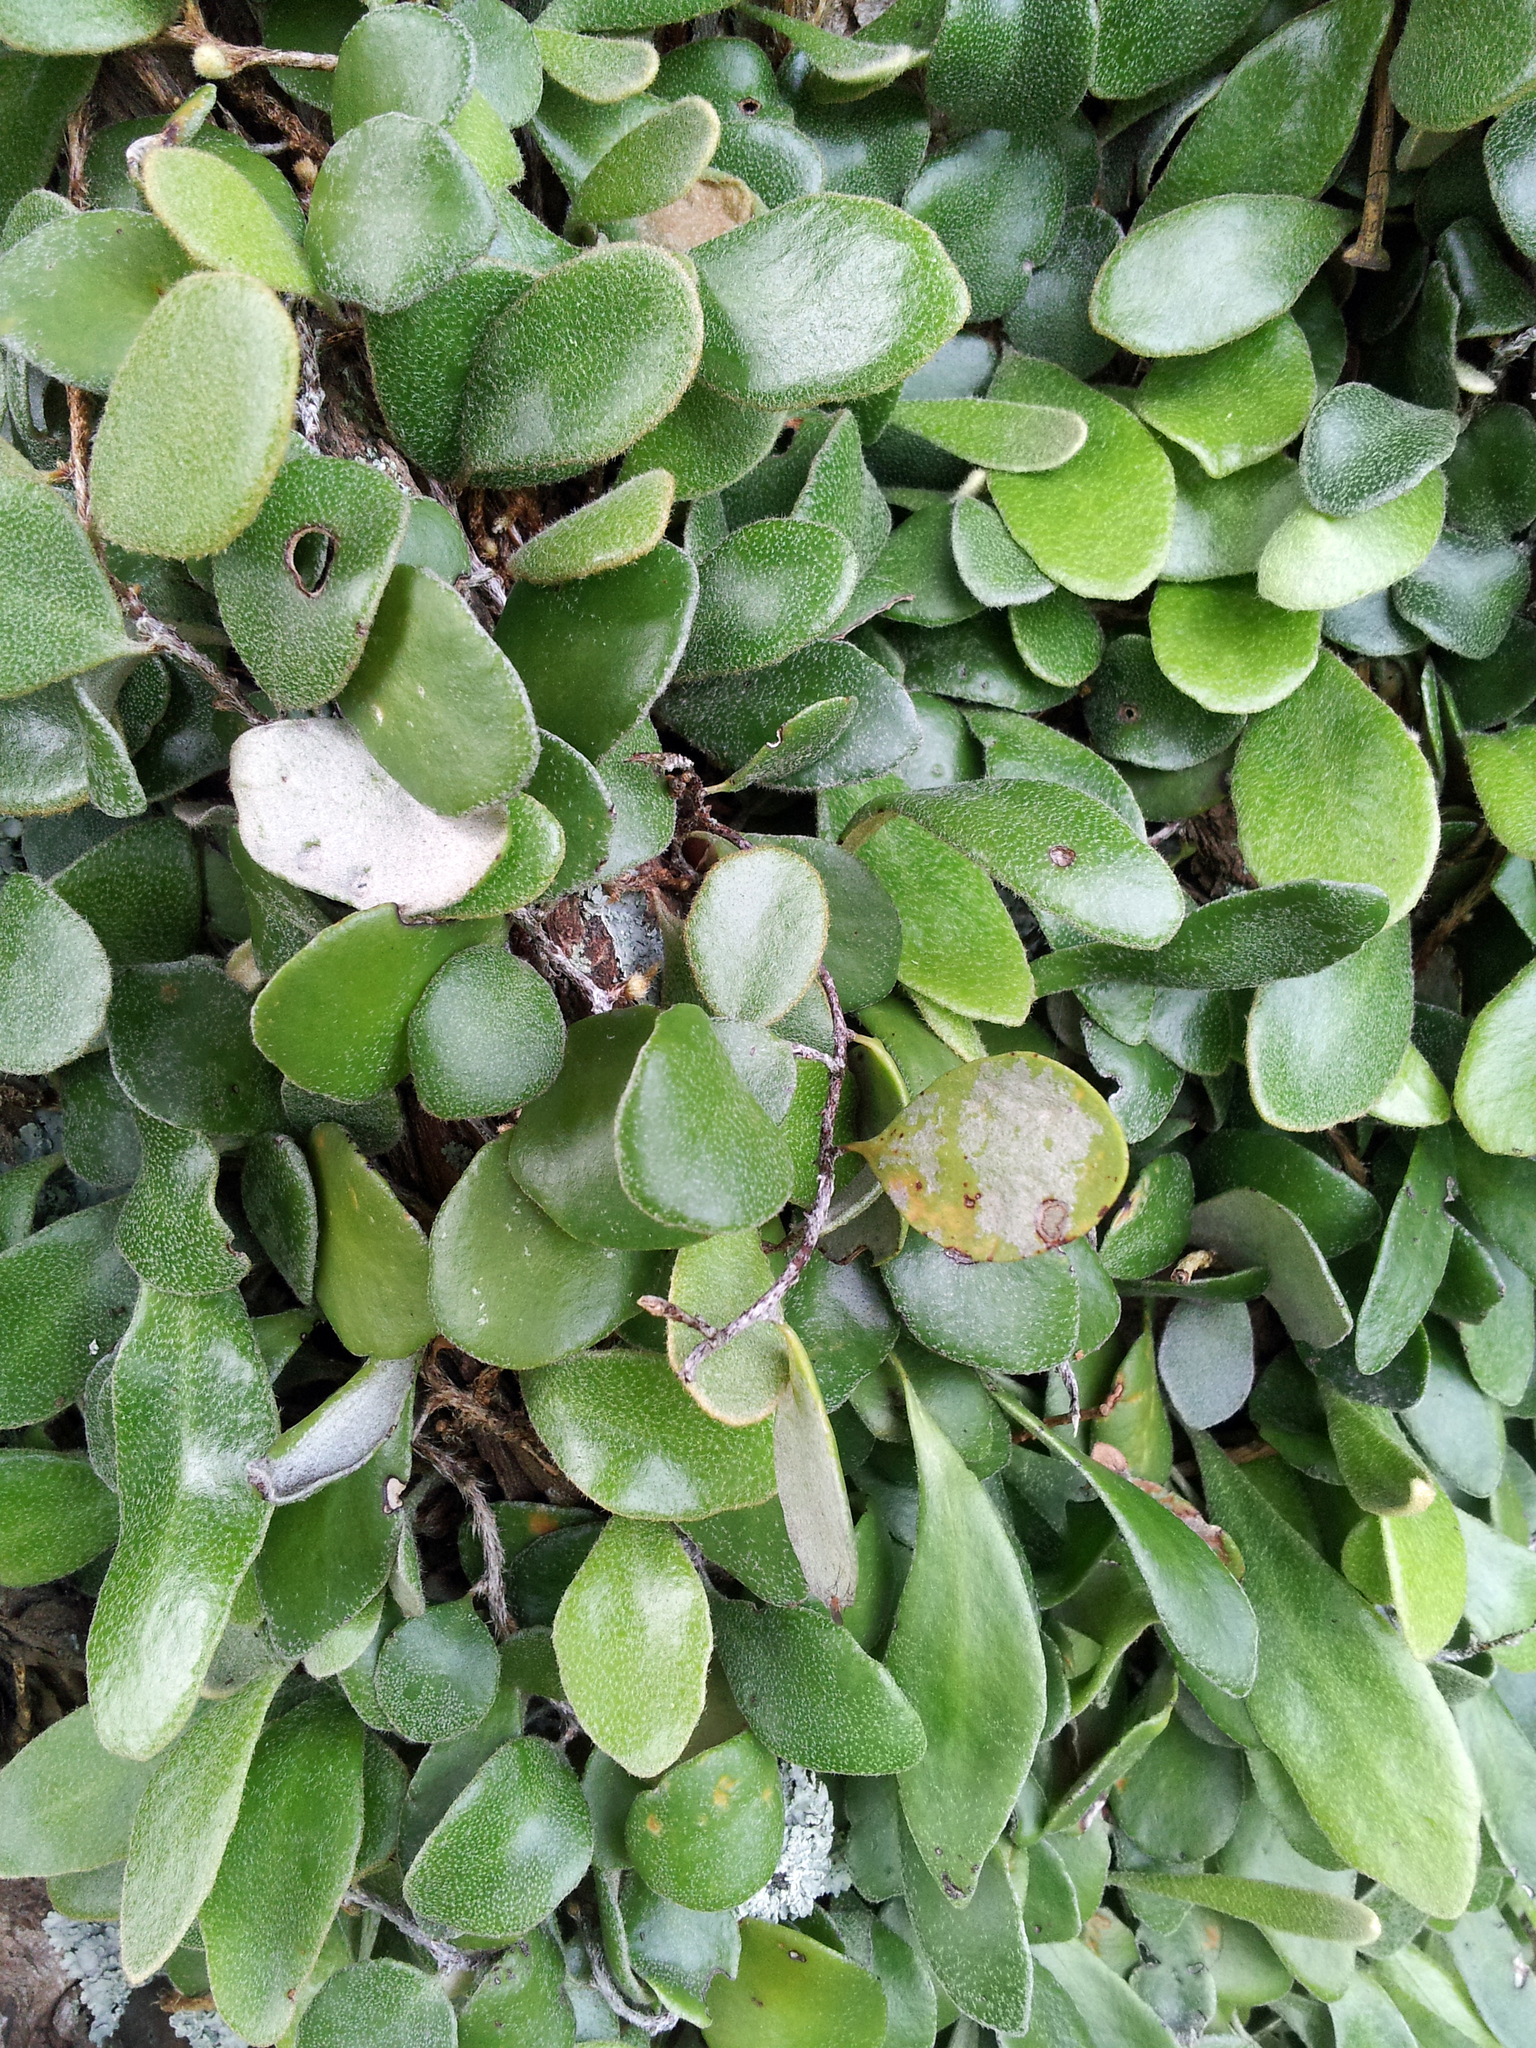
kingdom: Plantae
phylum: Tracheophyta
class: Polypodiopsida
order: Polypodiales
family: Polypodiaceae
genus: Pyrrosia
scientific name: Pyrrosia eleagnifolia
